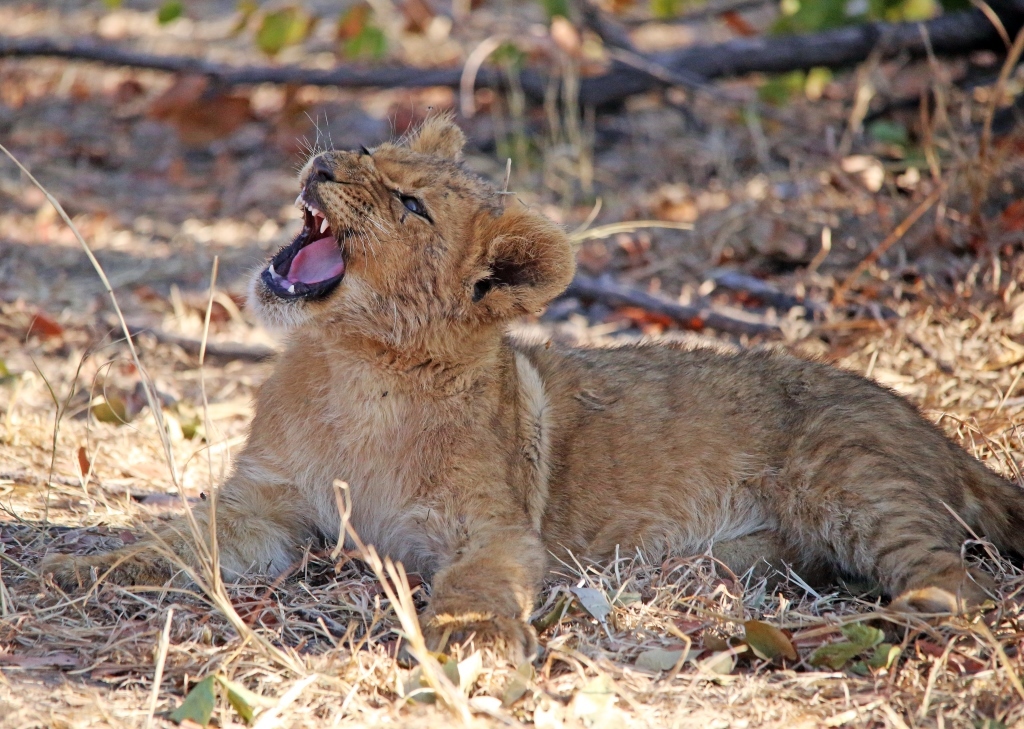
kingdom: Animalia
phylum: Chordata
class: Mammalia
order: Carnivora
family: Felidae
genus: Panthera
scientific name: Panthera leo
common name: Lion
